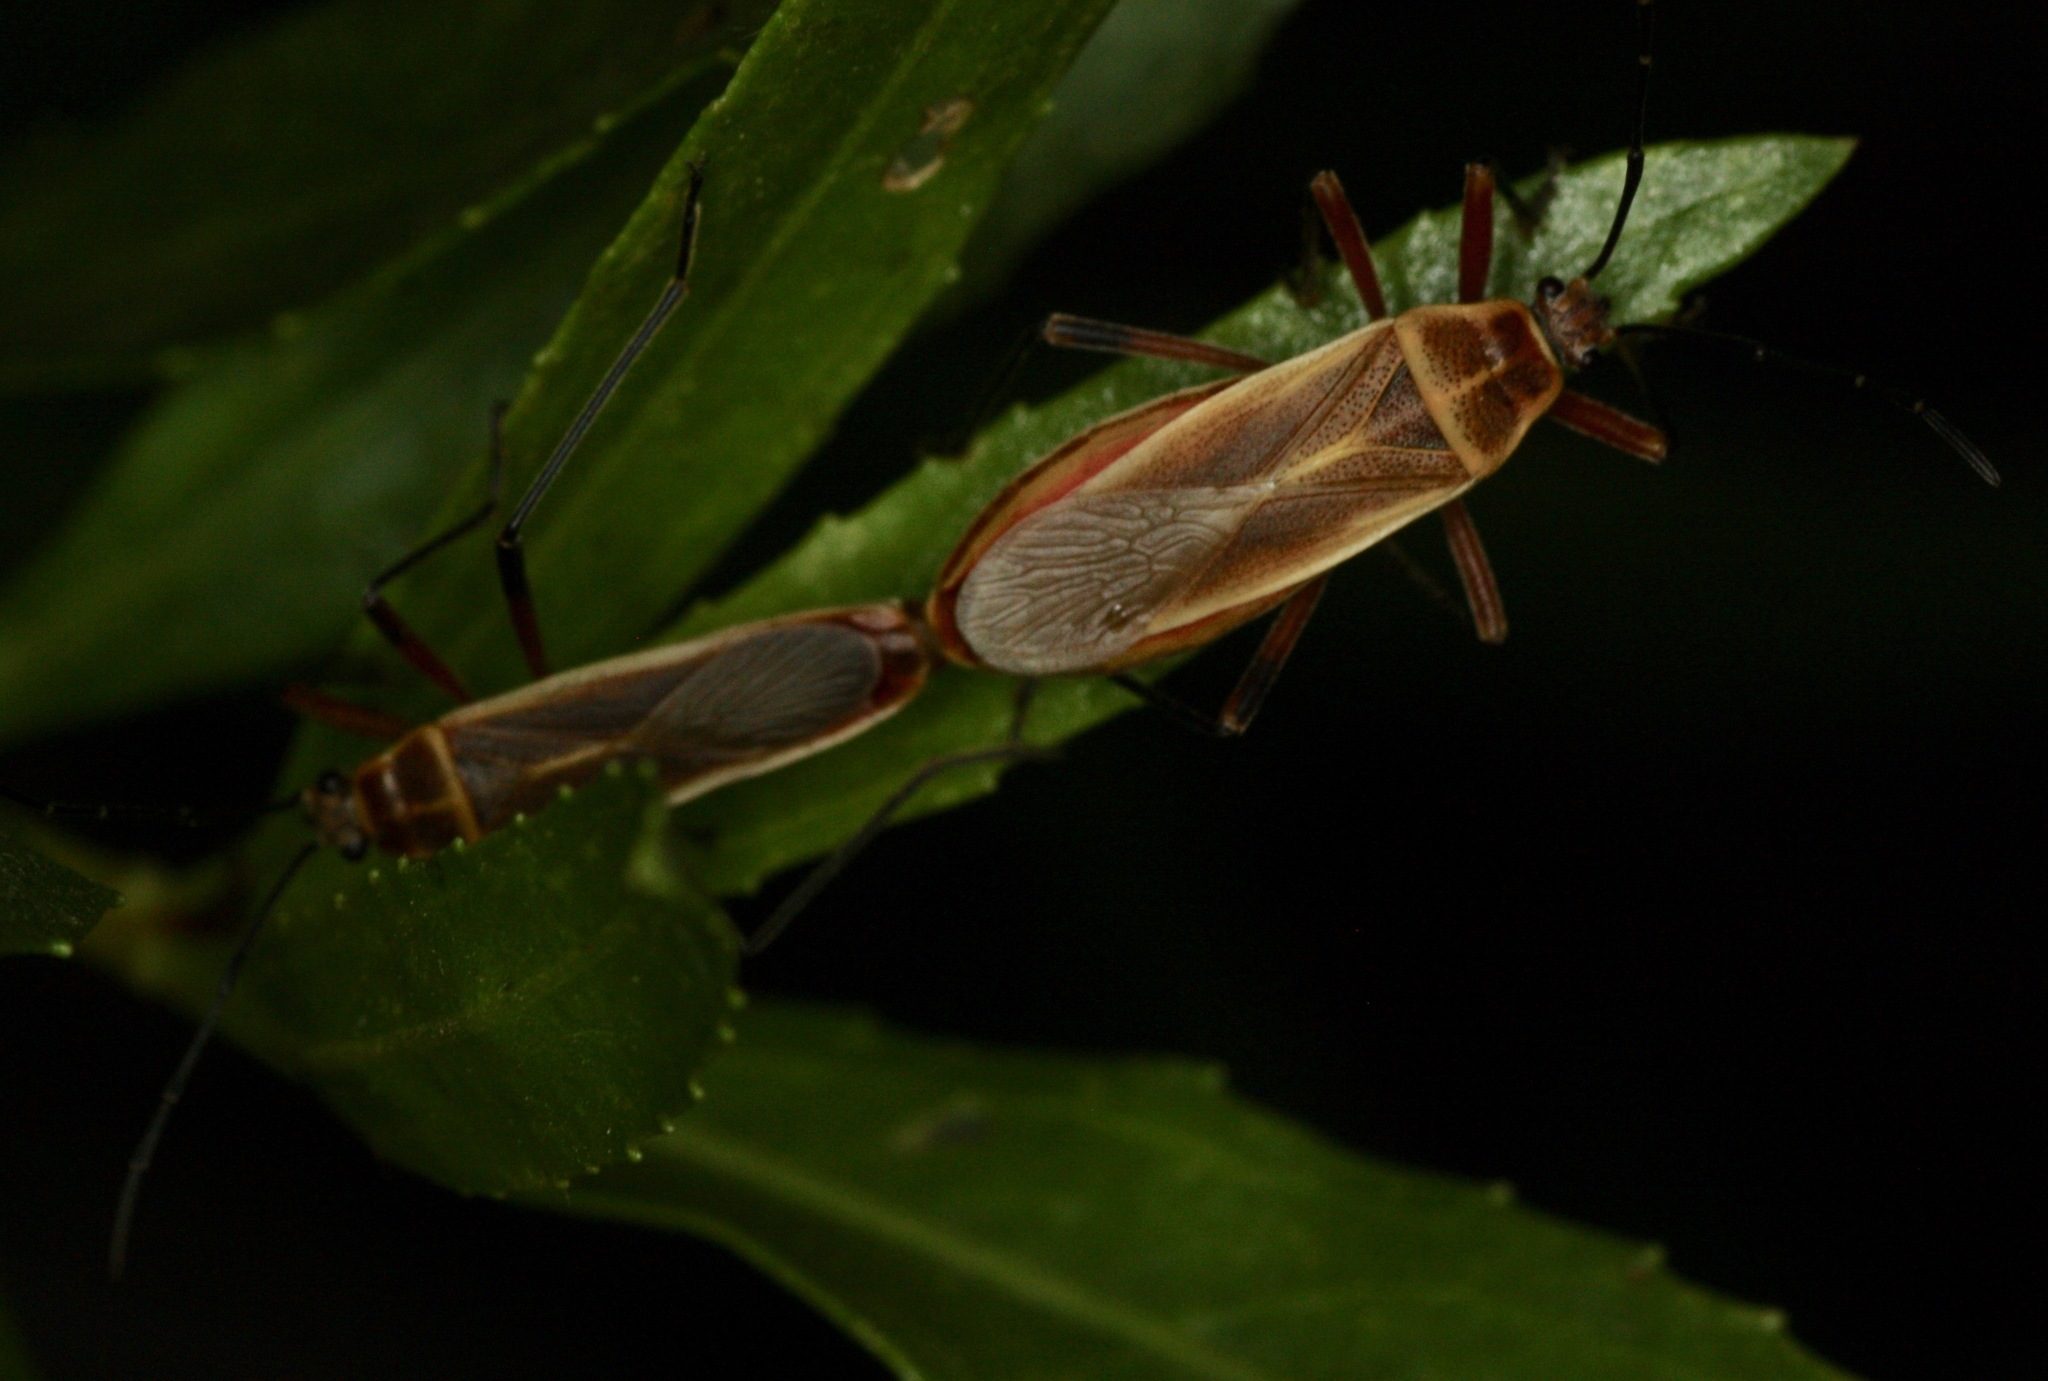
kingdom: Animalia
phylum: Arthropoda
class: Insecta
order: Hemiptera
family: Largidae
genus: Stenomacra
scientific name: Stenomacra marginella
